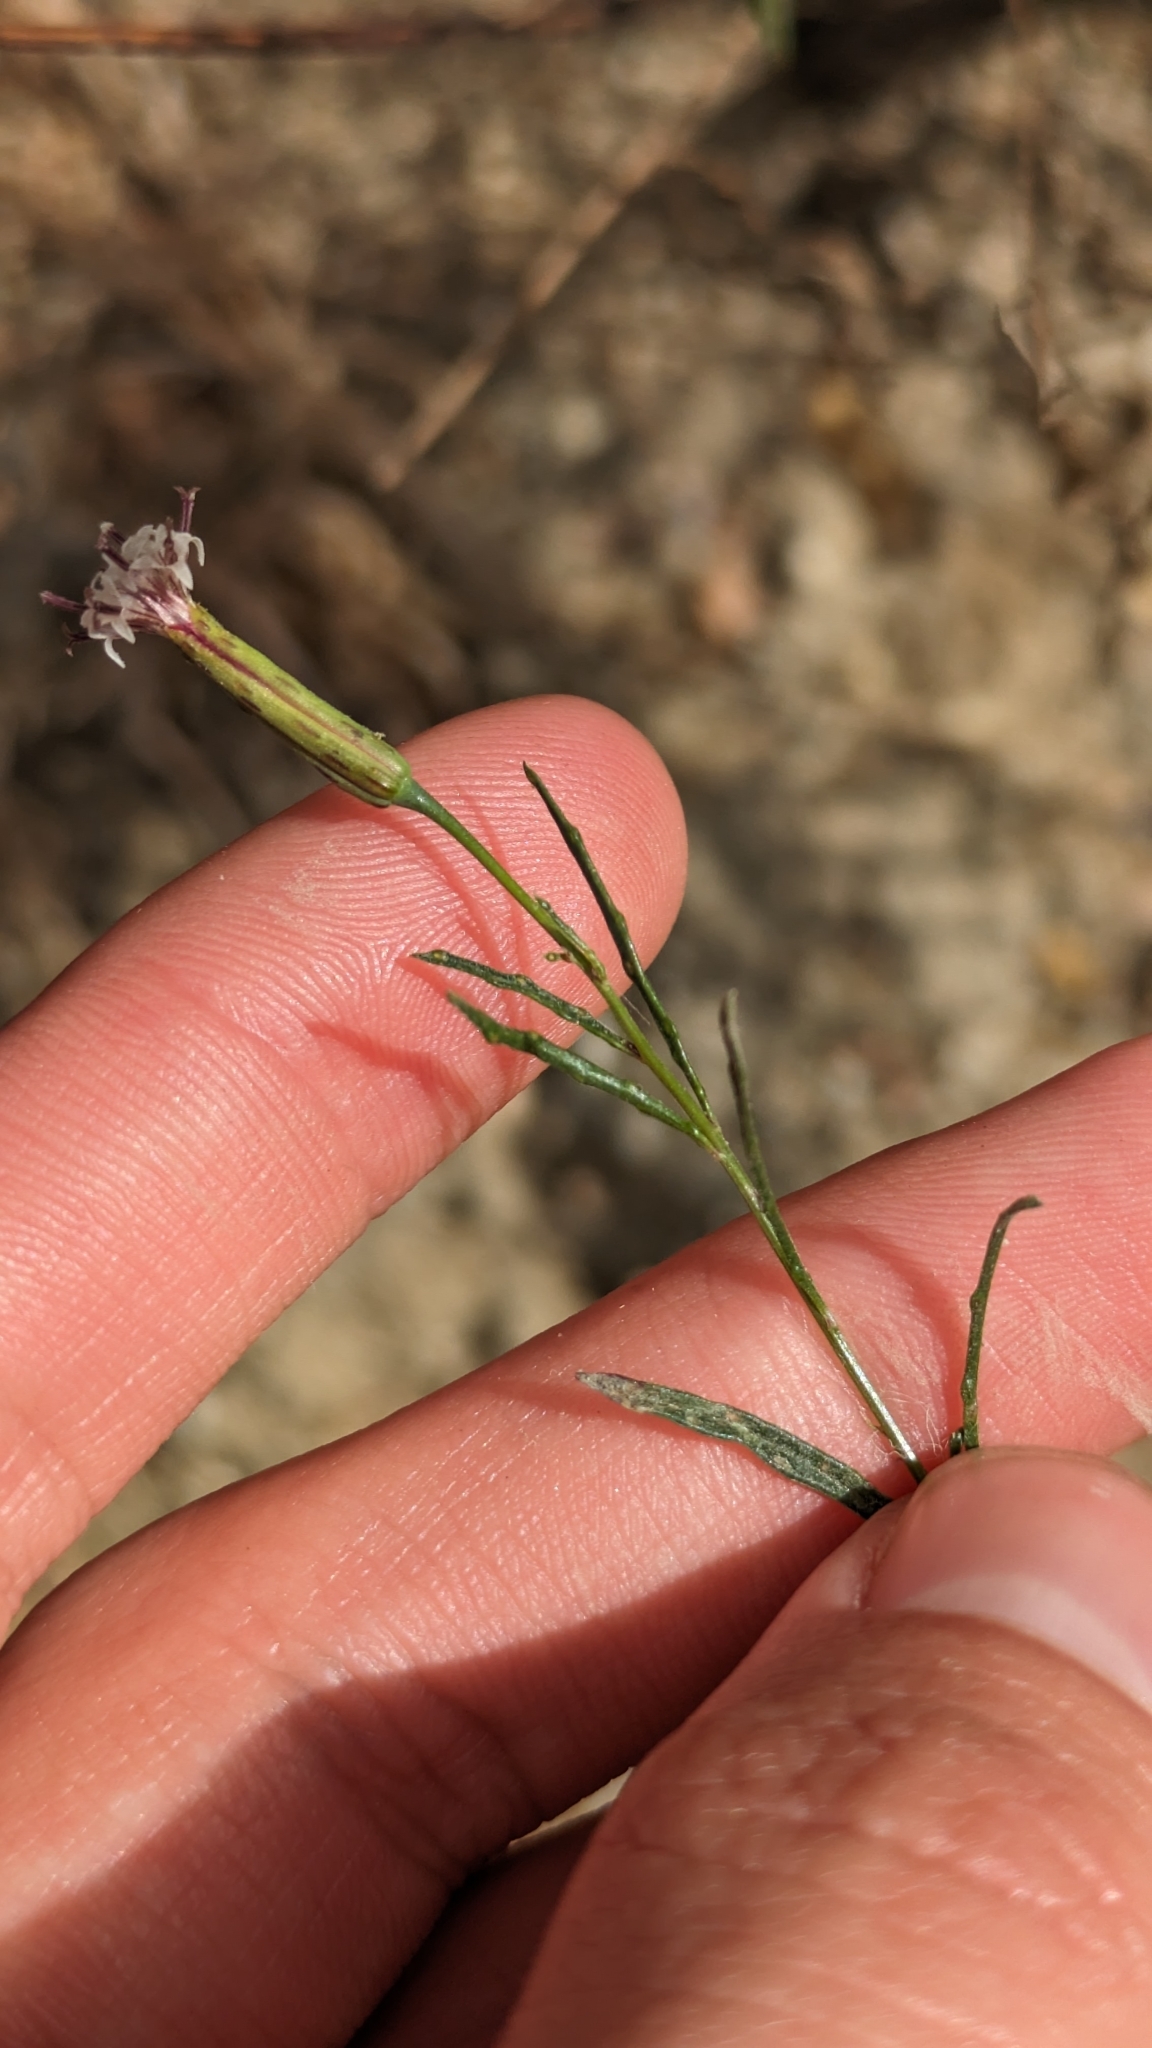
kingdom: Plantae
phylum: Tracheophyta
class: Magnoliopsida
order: Asterales
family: Asteraceae
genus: Porophyllum
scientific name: Porophyllum gracile
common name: Odora
